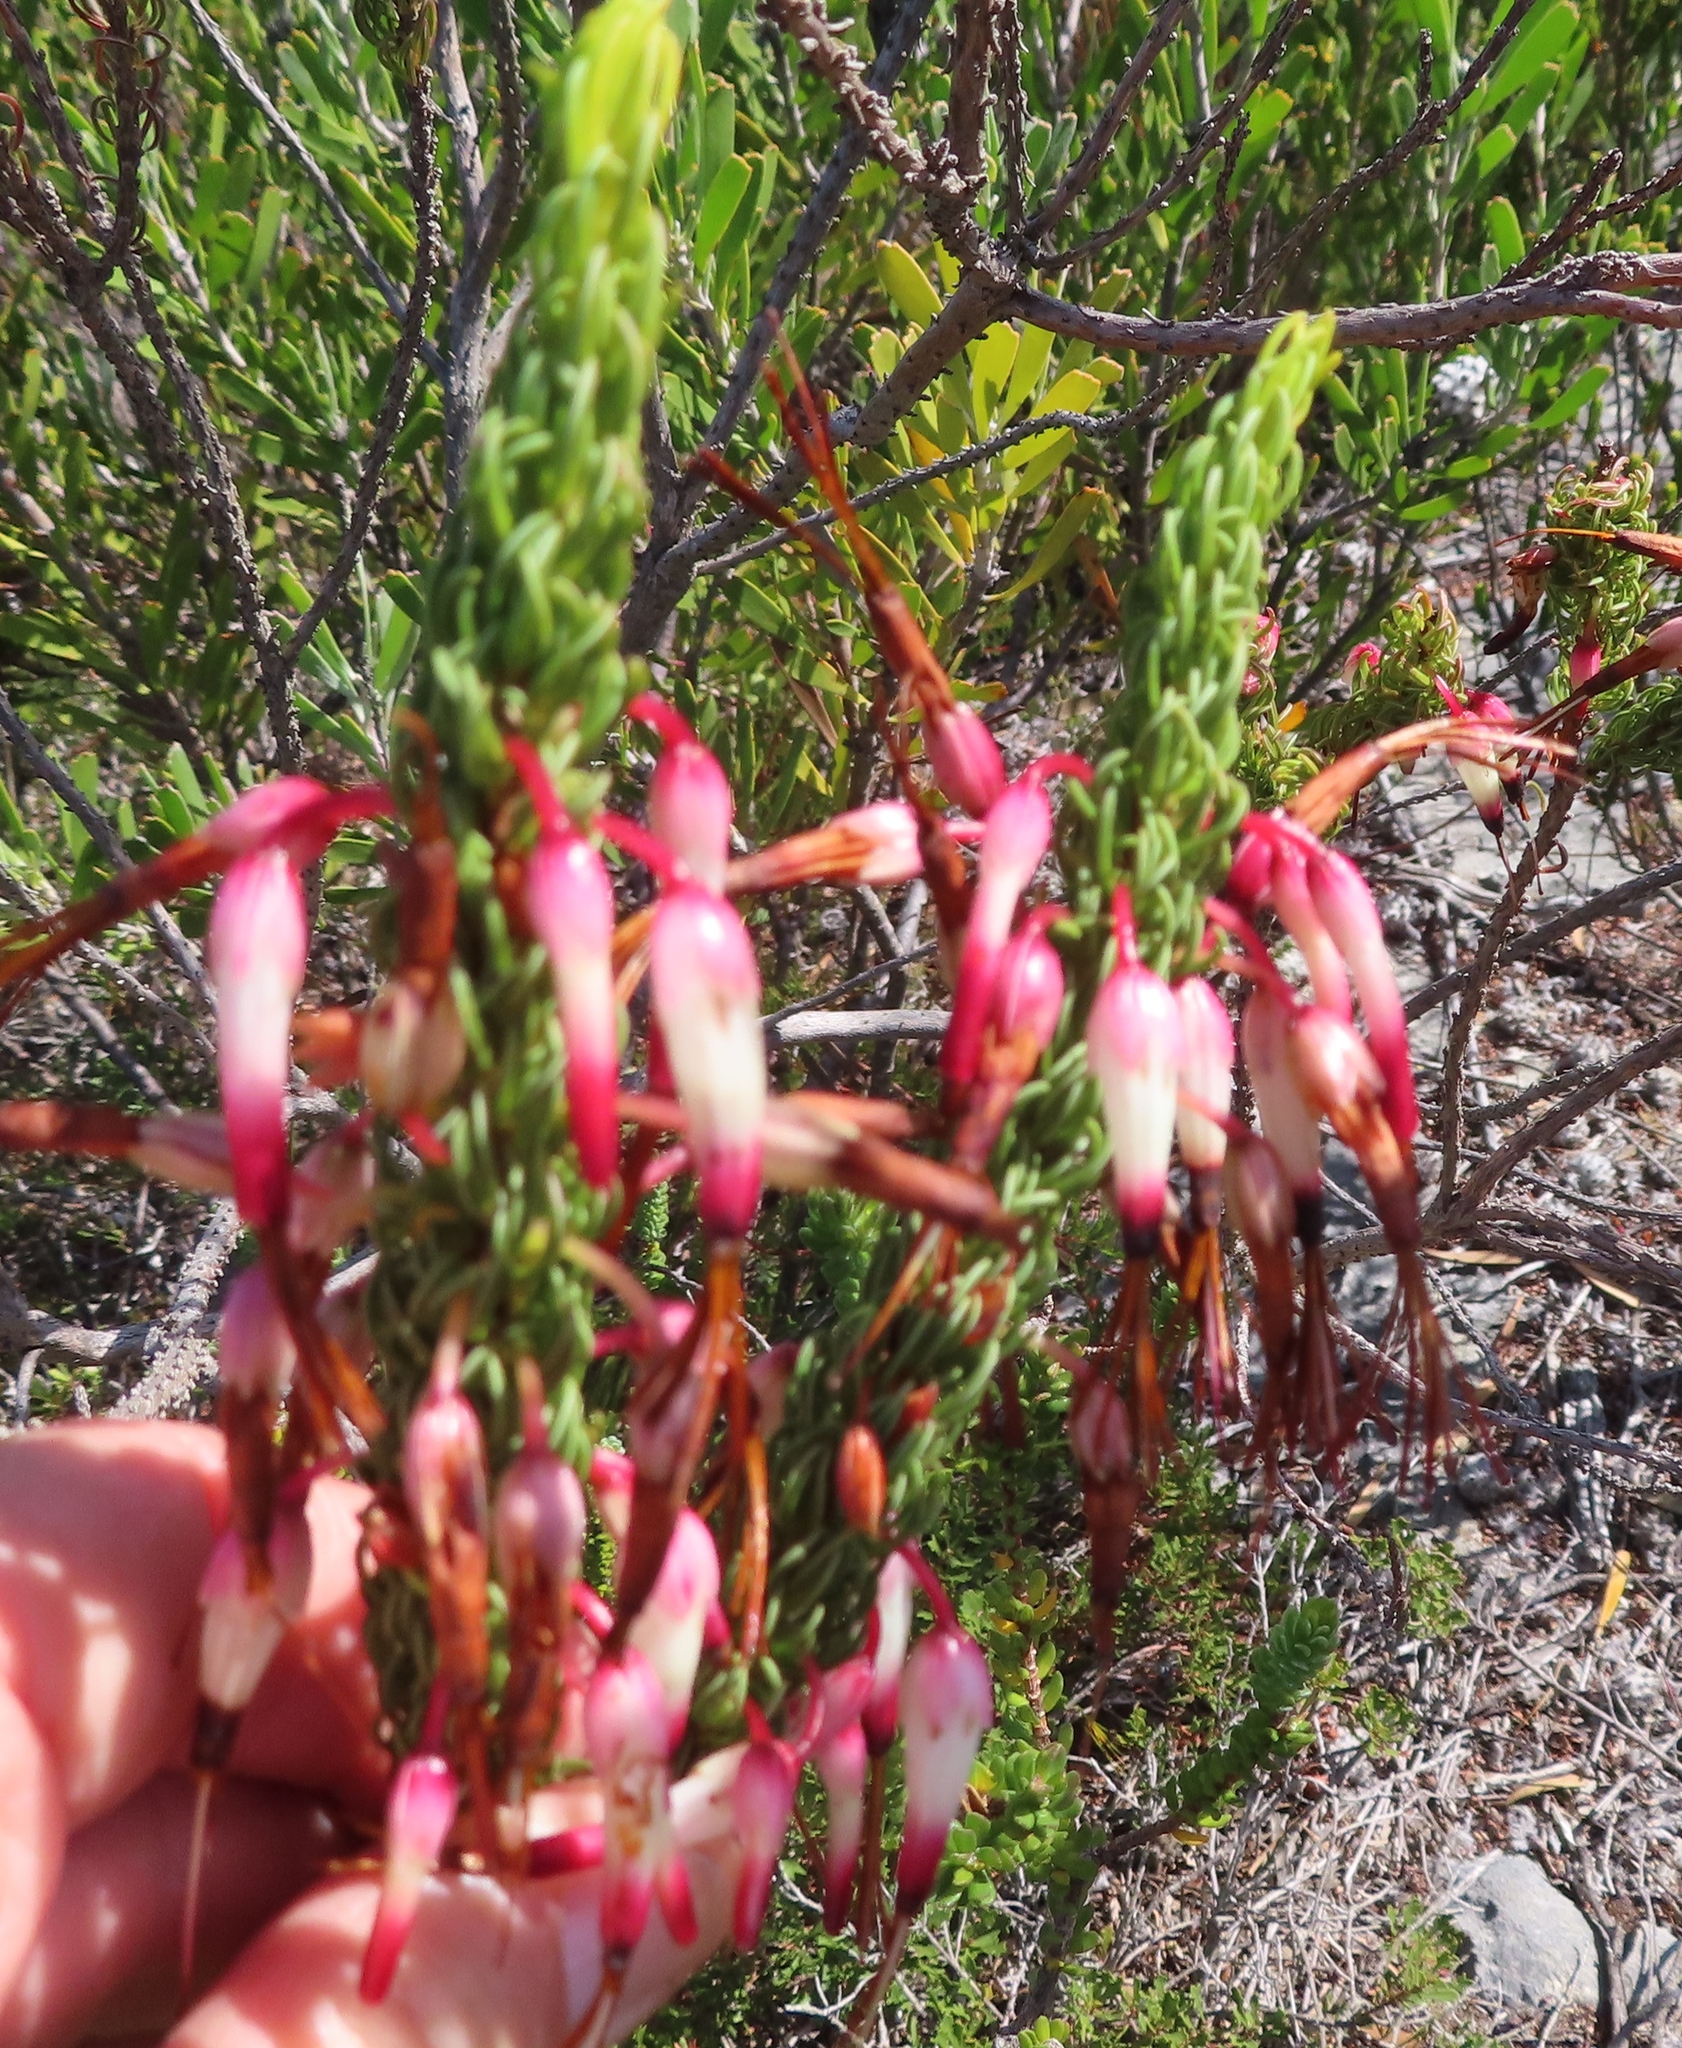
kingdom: Plantae
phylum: Tracheophyta
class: Magnoliopsida
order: Ericales
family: Ericaceae
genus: Erica
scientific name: Erica plukenetii
